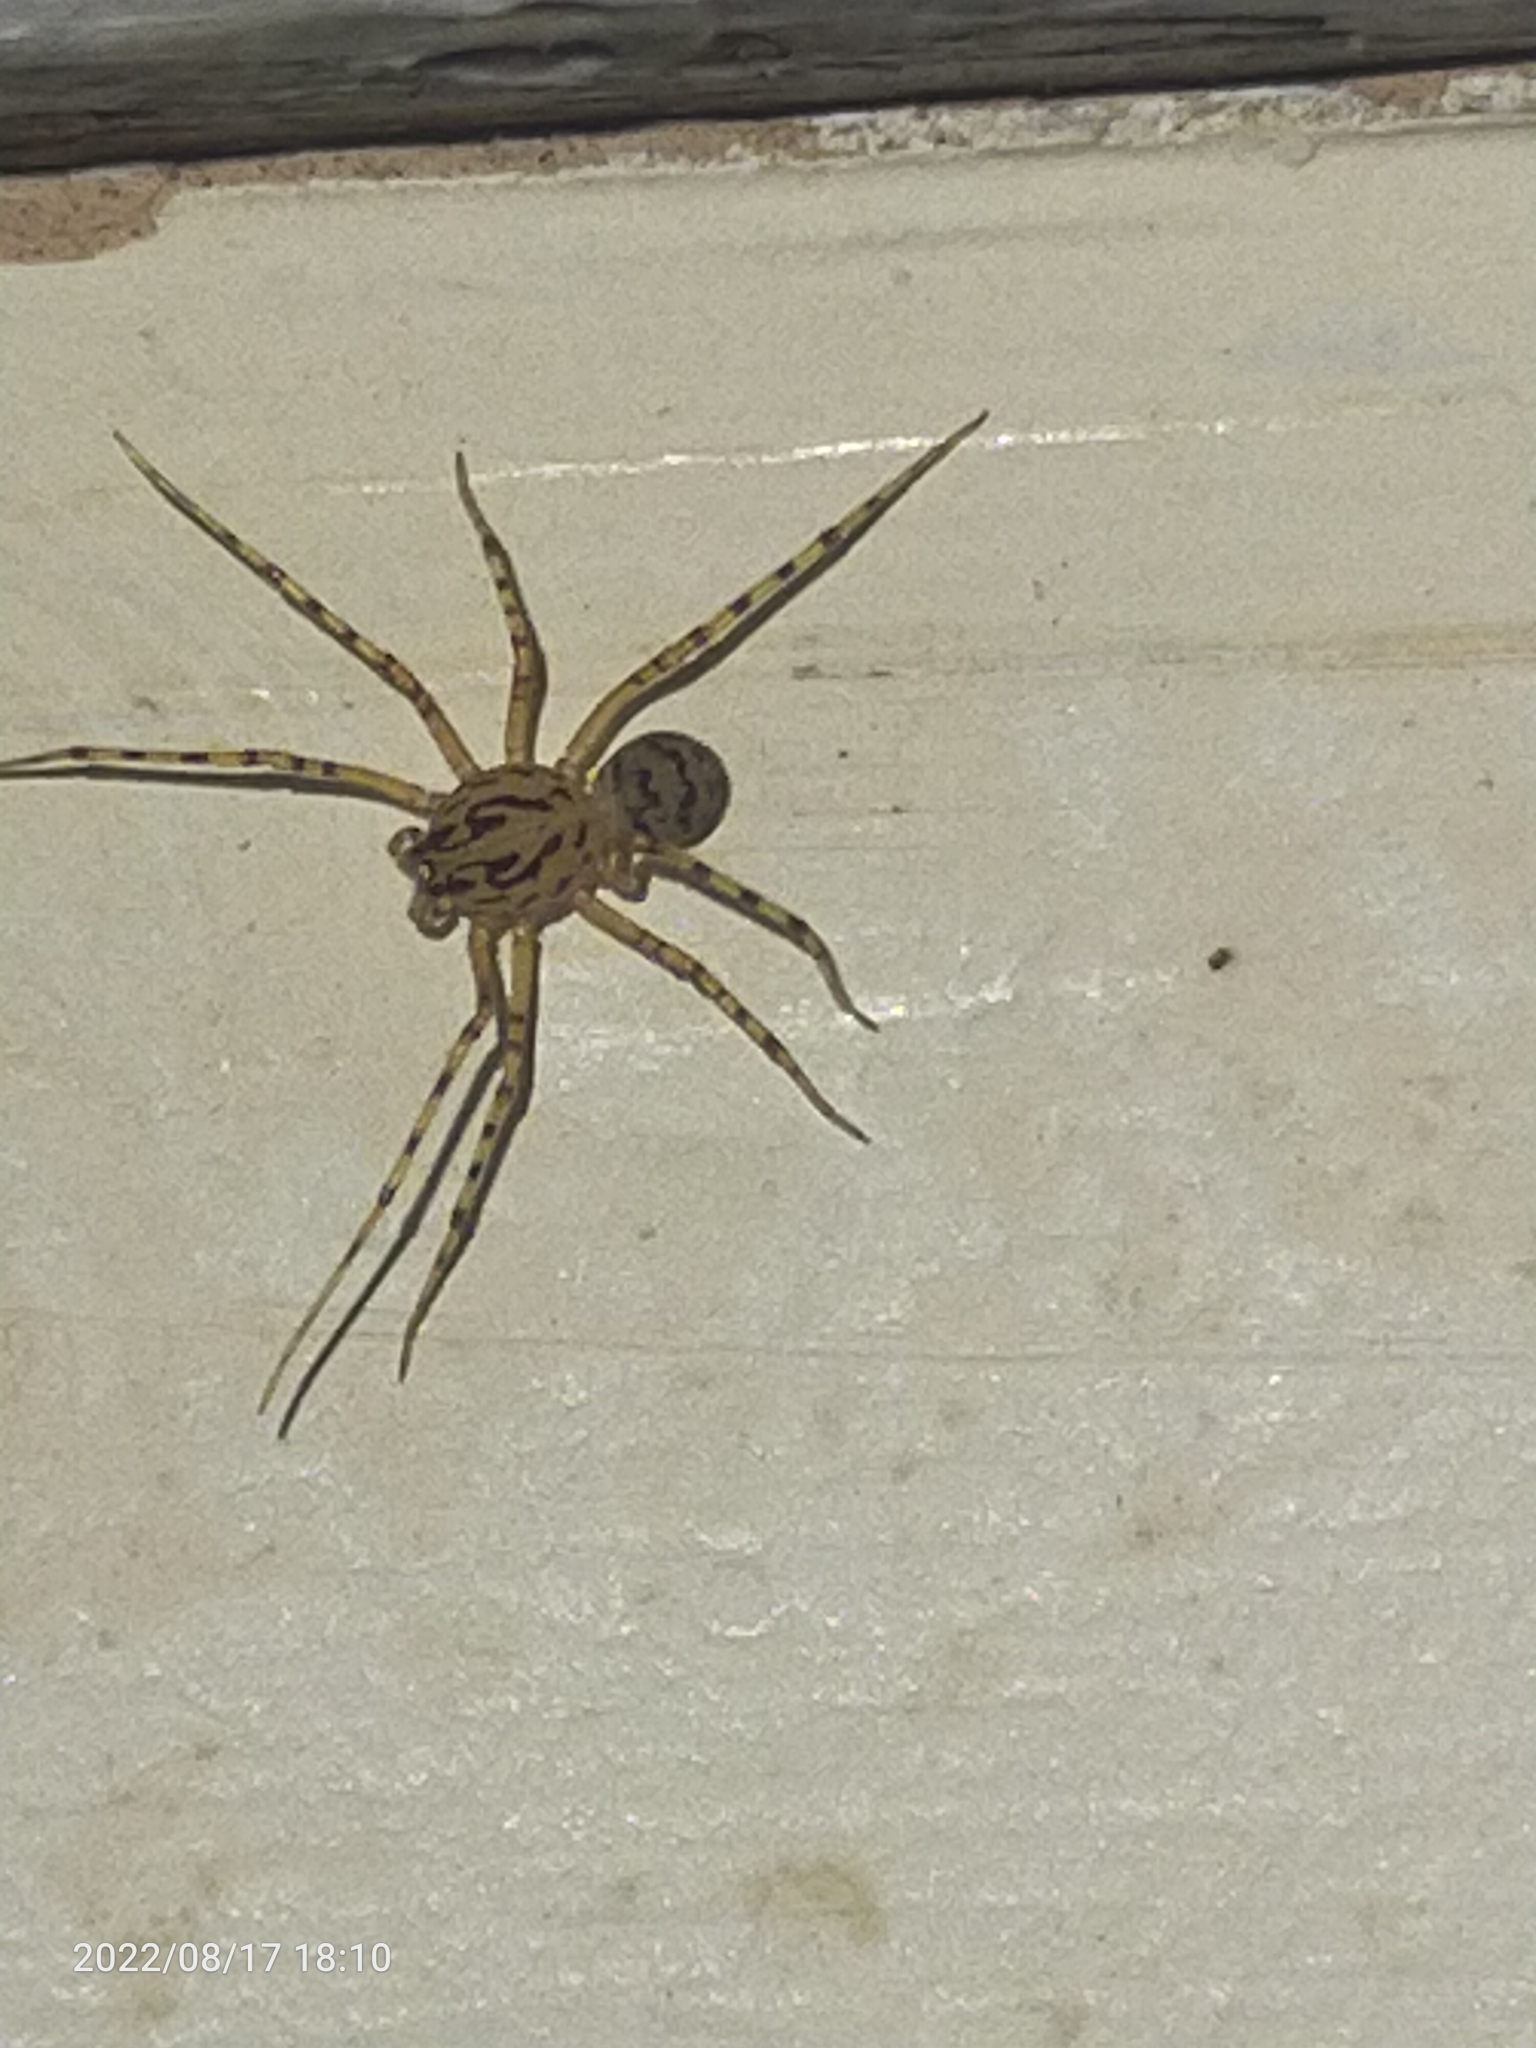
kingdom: Animalia
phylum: Arthropoda
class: Arachnida
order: Araneae
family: Scytodidae
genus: Scytodes
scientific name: Scytodes thoracica
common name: Spitting spider
